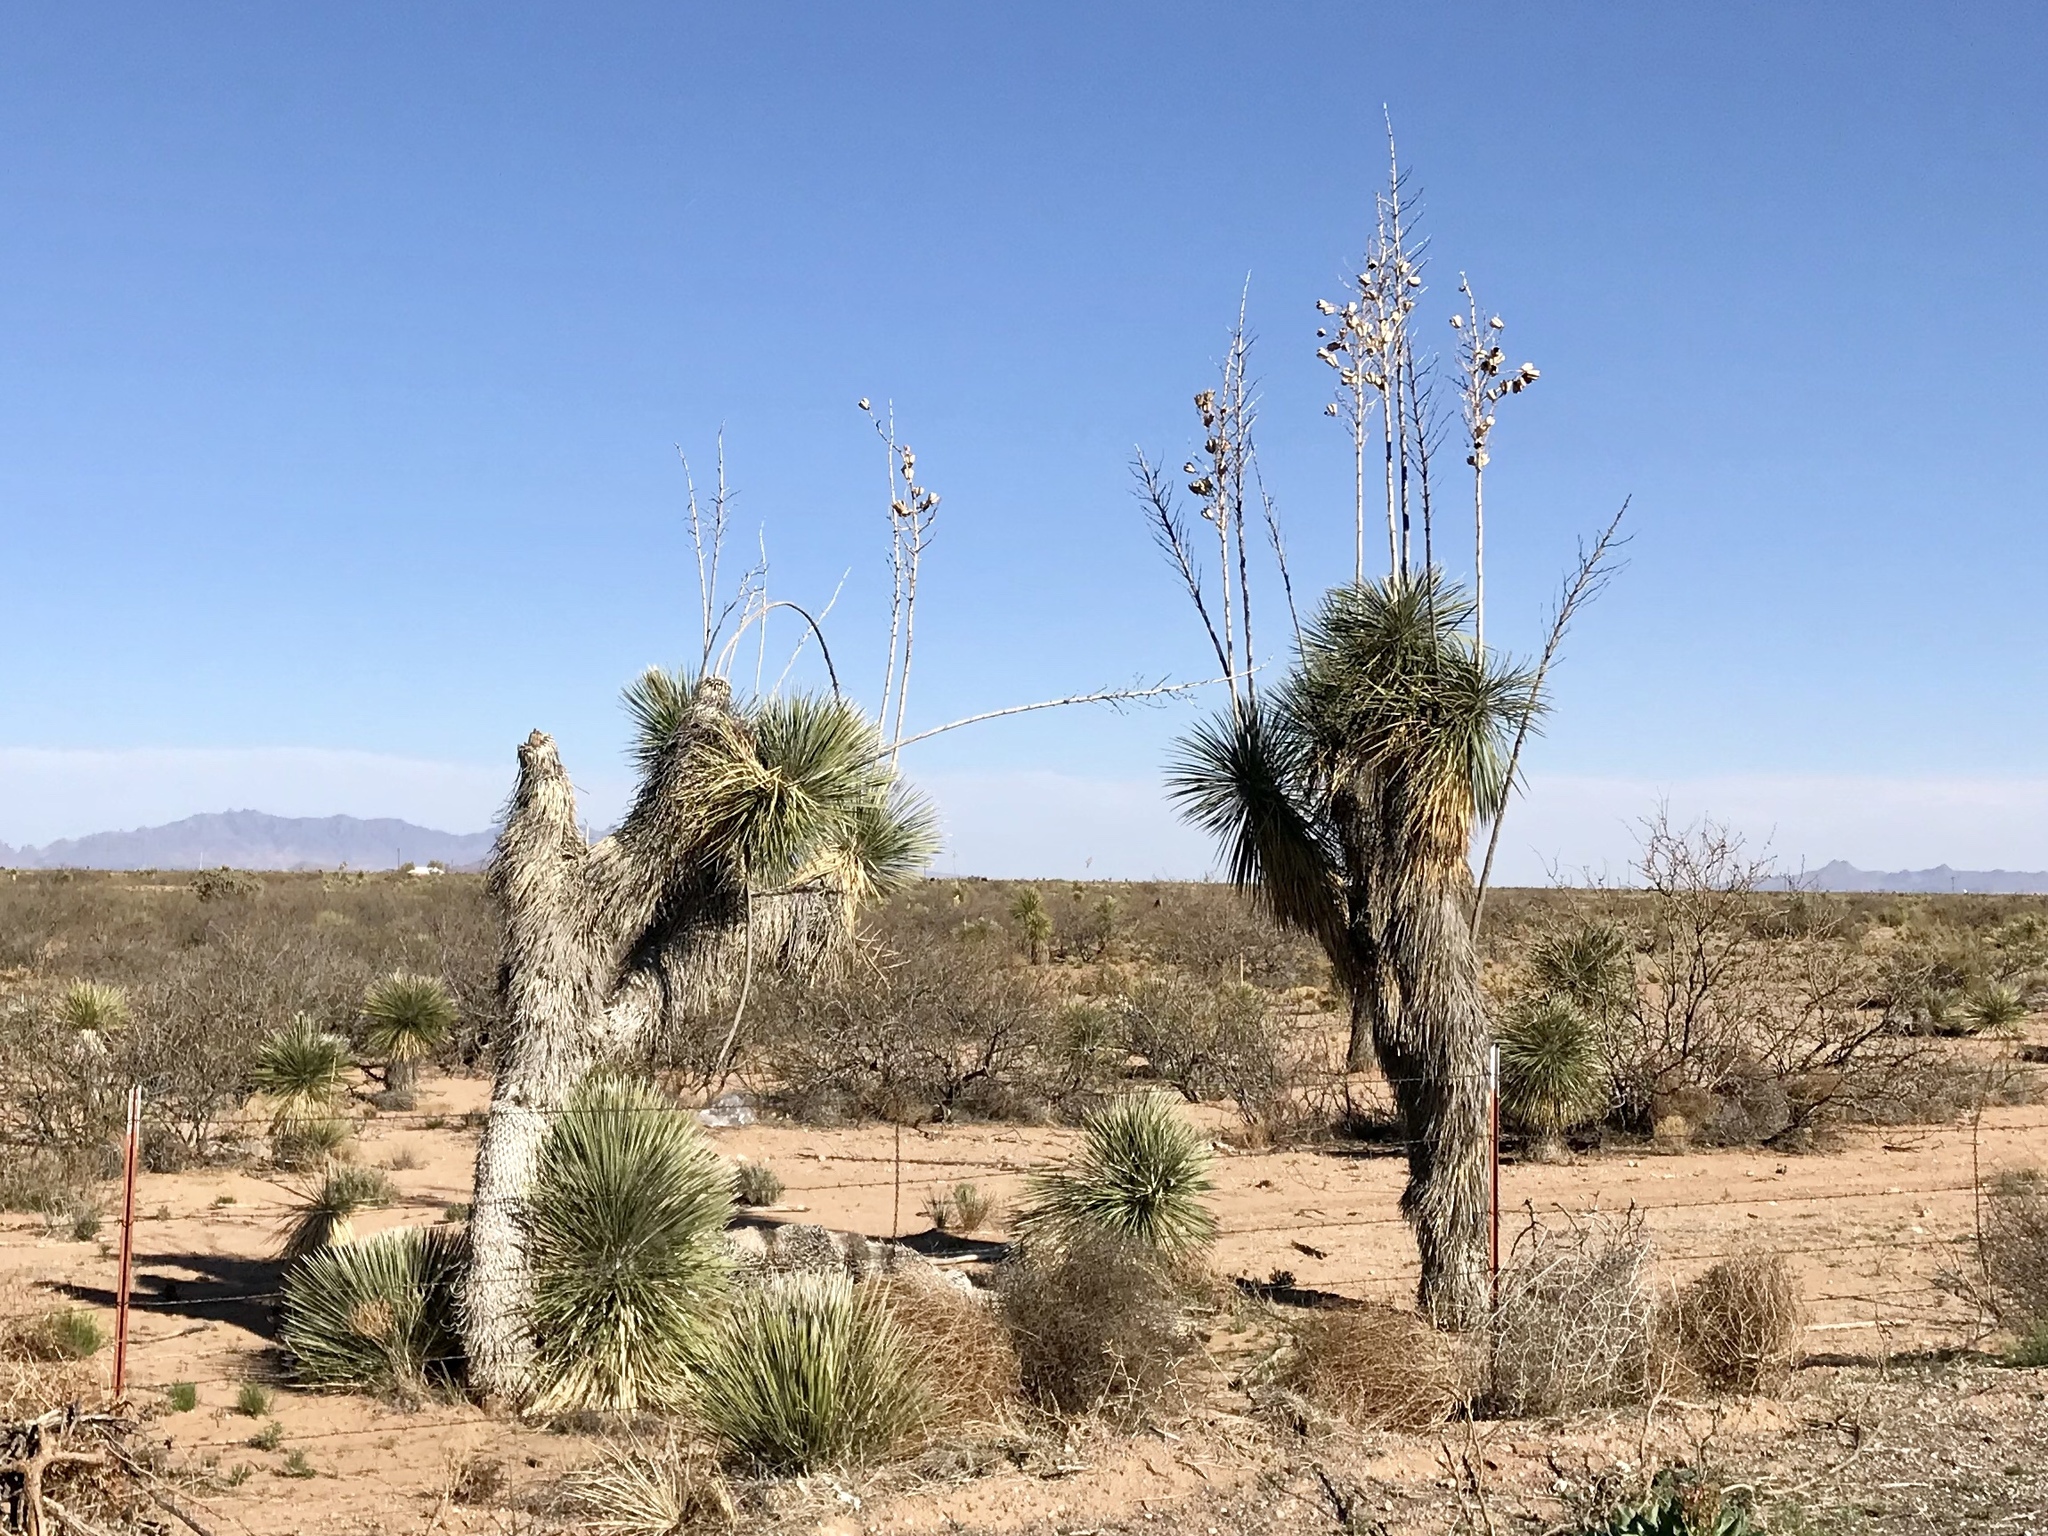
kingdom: Plantae
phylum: Tracheophyta
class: Liliopsida
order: Asparagales
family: Asparagaceae
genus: Yucca
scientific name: Yucca elata
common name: Palmella
